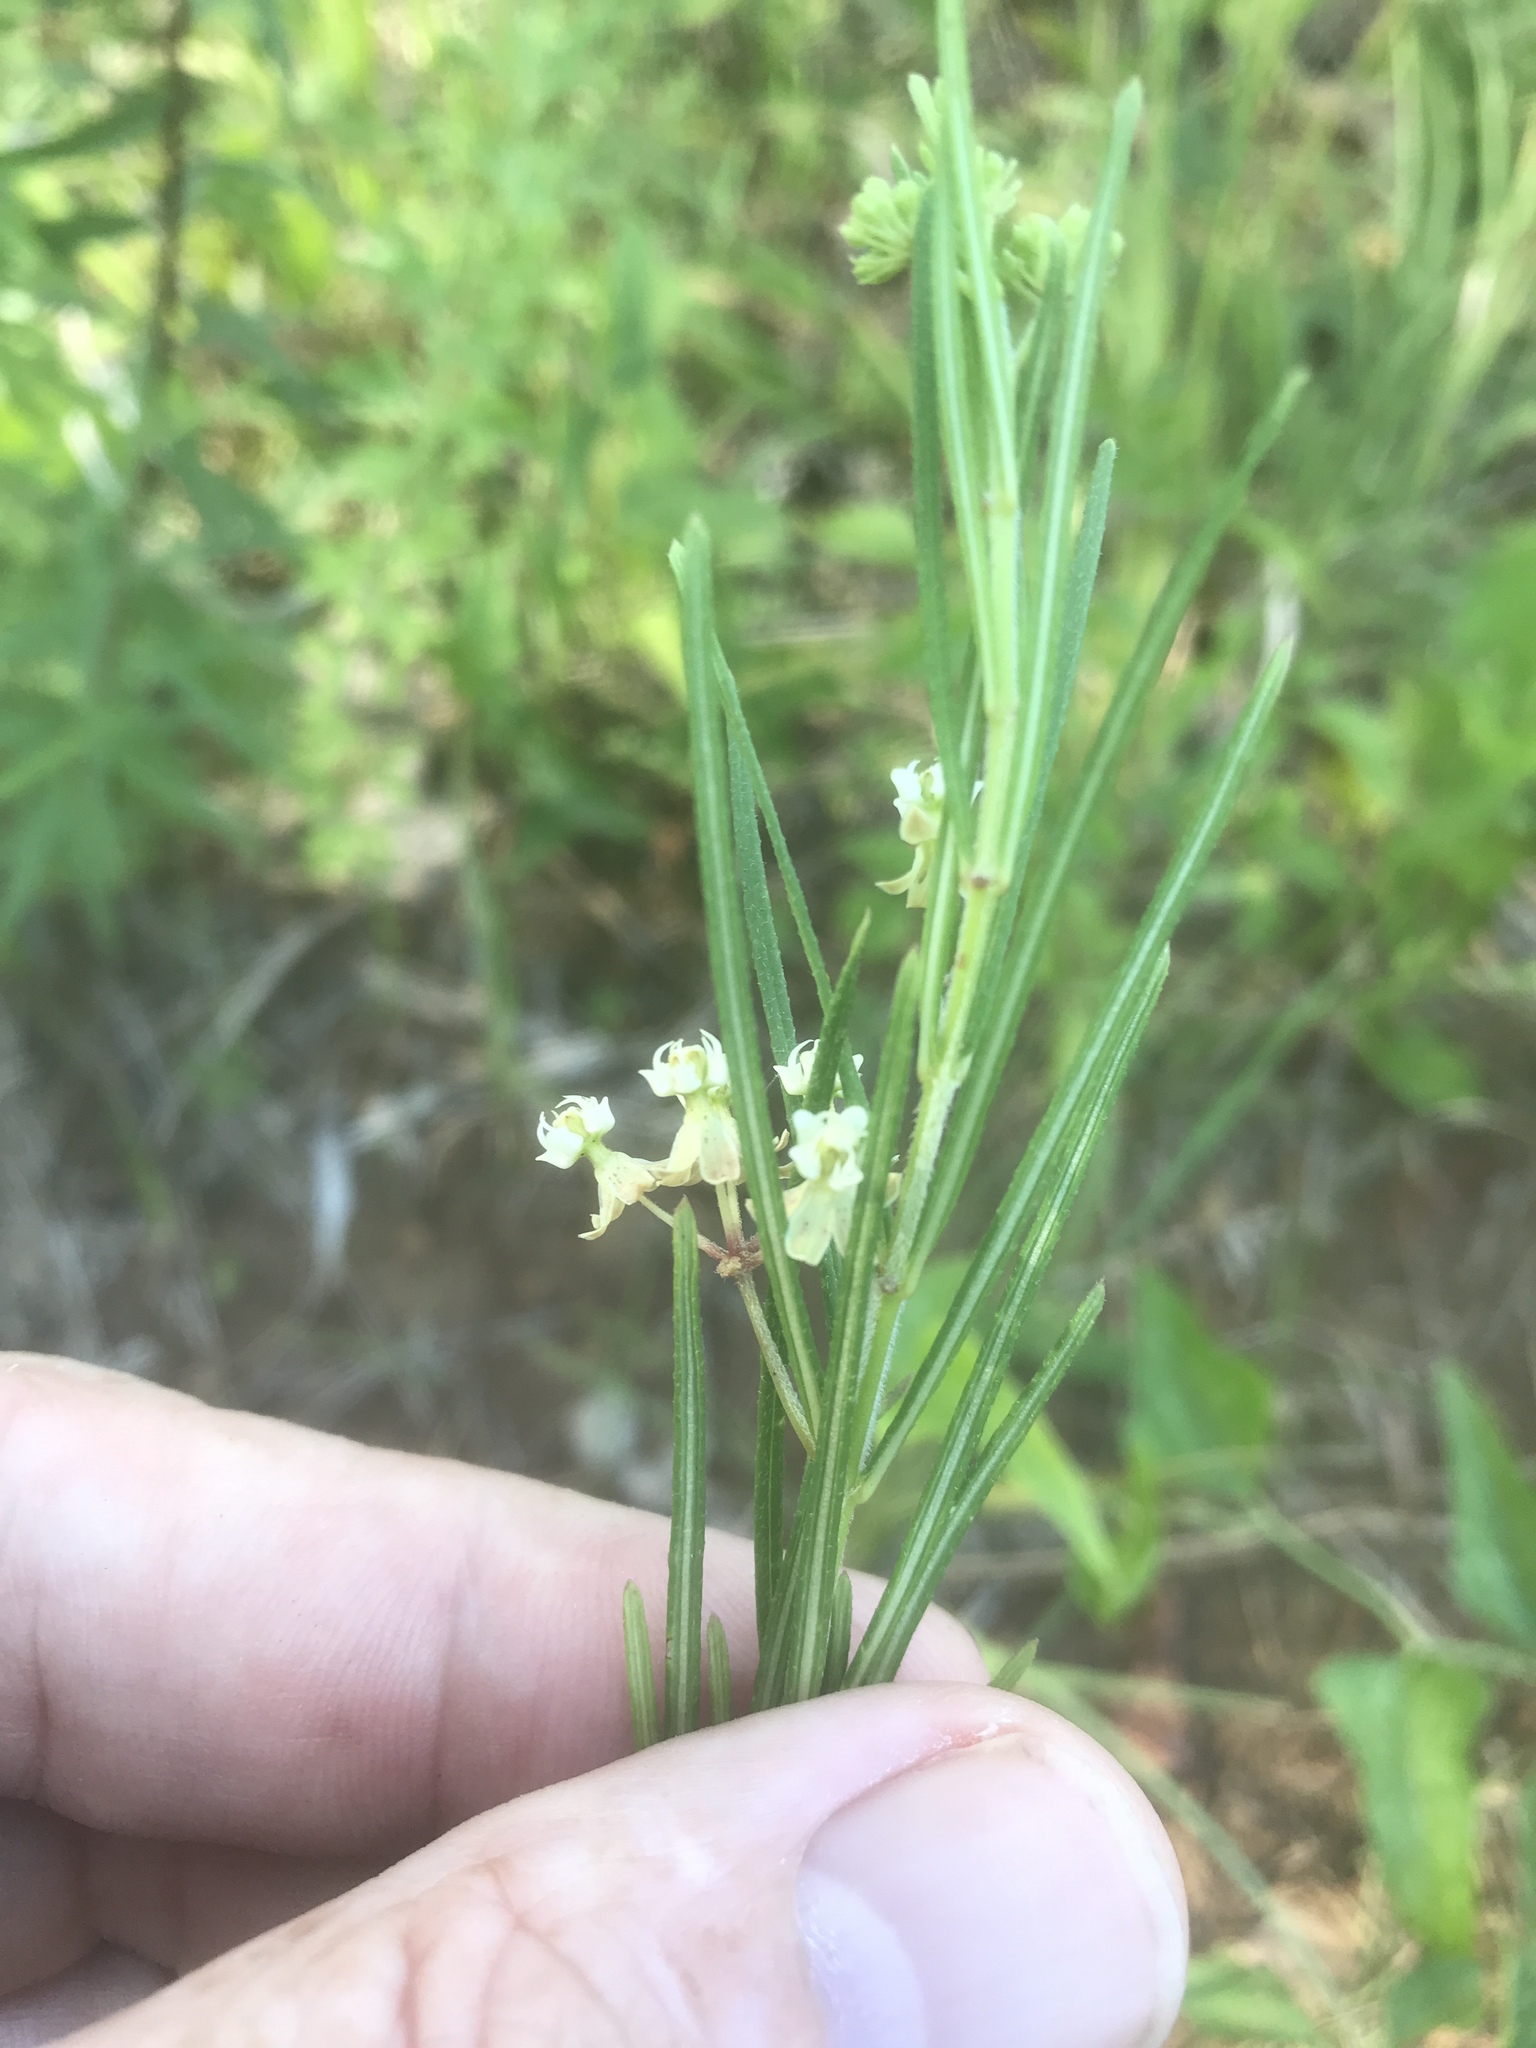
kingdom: Plantae
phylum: Tracheophyta
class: Magnoliopsida
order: Gentianales
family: Apocynaceae
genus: Asclepias
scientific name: Asclepias verticillata
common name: Eastern whorled milkweed
